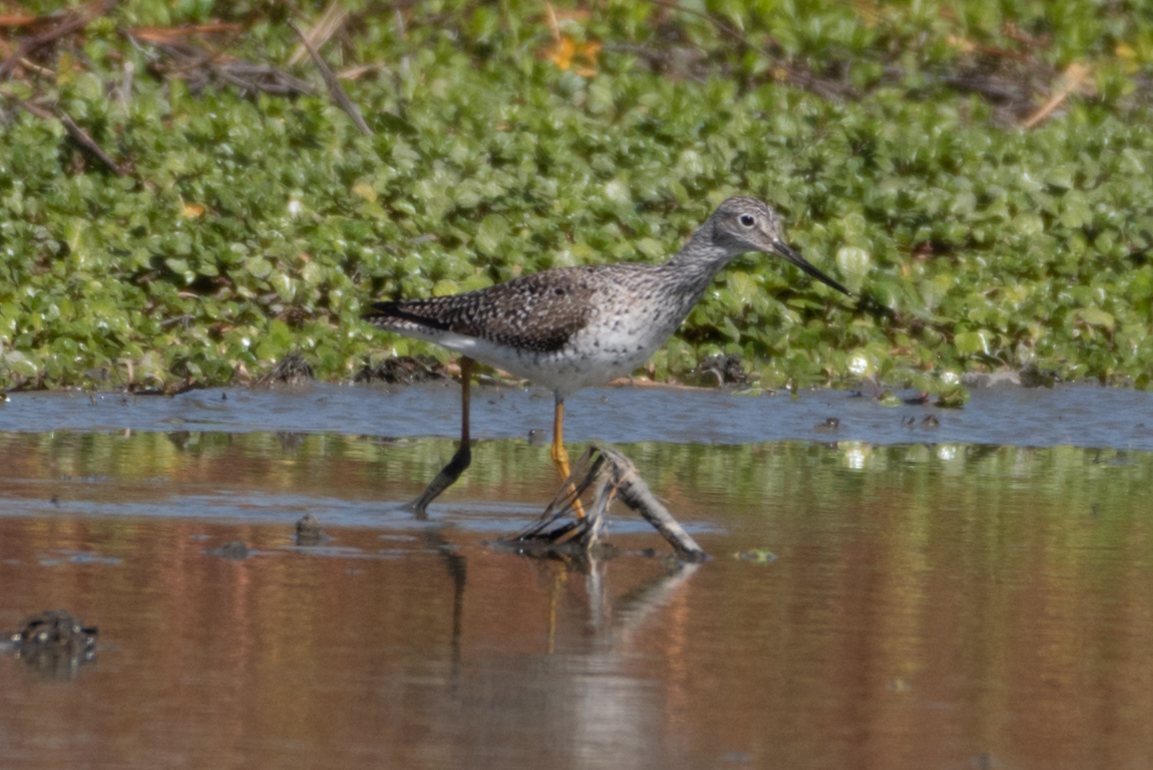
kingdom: Animalia
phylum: Chordata
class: Aves
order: Charadriiformes
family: Scolopacidae
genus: Tringa
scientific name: Tringa melanoleuca
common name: Greater yellowlegs
